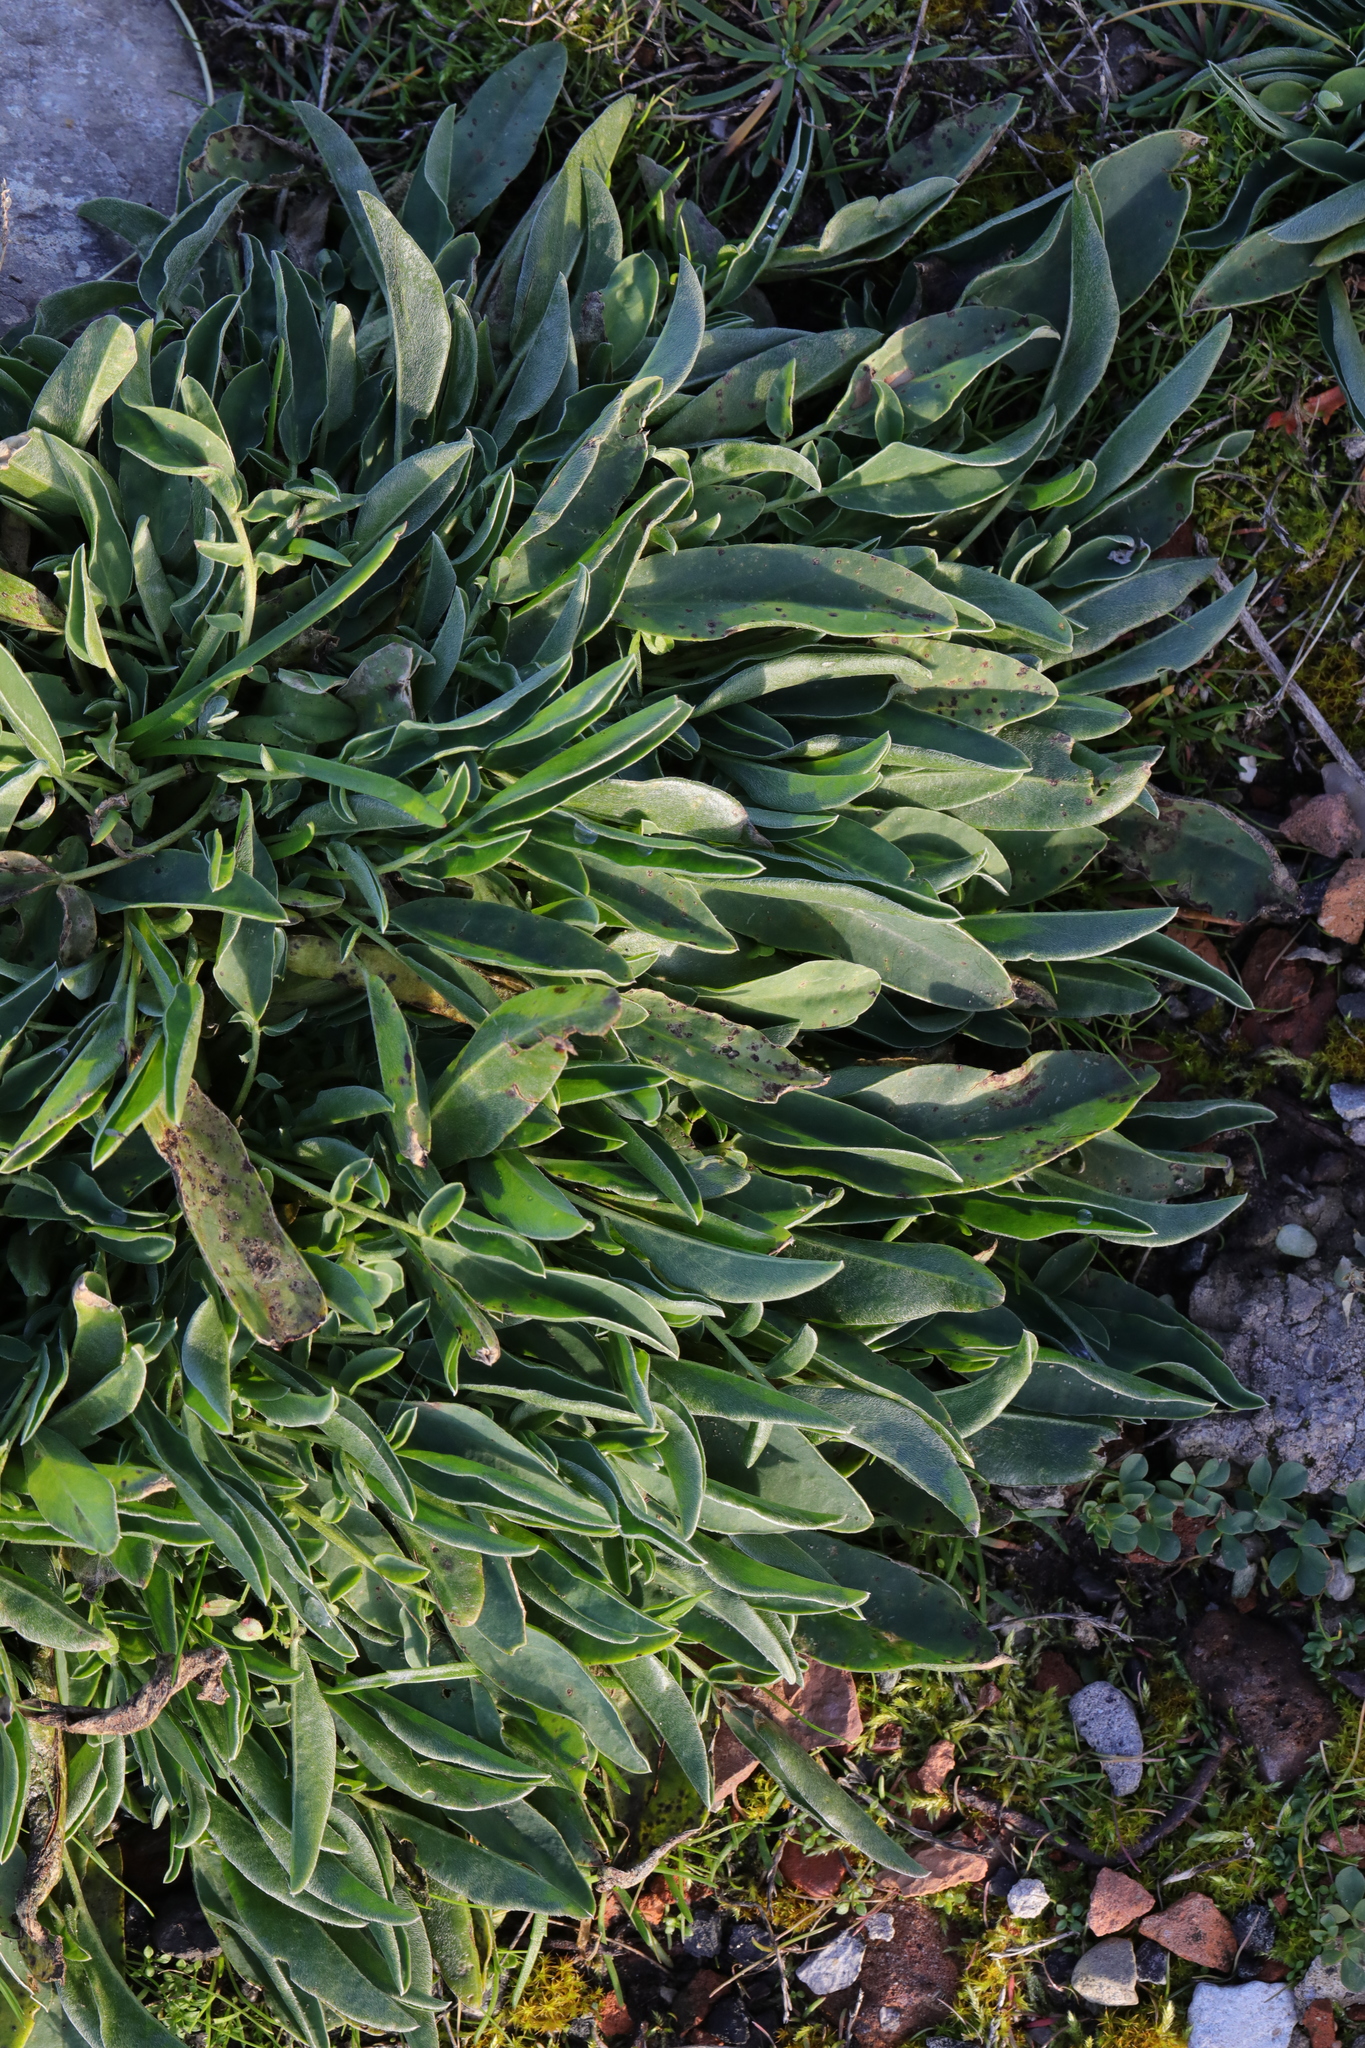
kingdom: Plantae
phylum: Tracheophyta
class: Magnoliopsida
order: Fabales
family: Fabaceae
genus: Anthyllis
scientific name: Anthyllis vulneraria
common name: Kidney vetch
